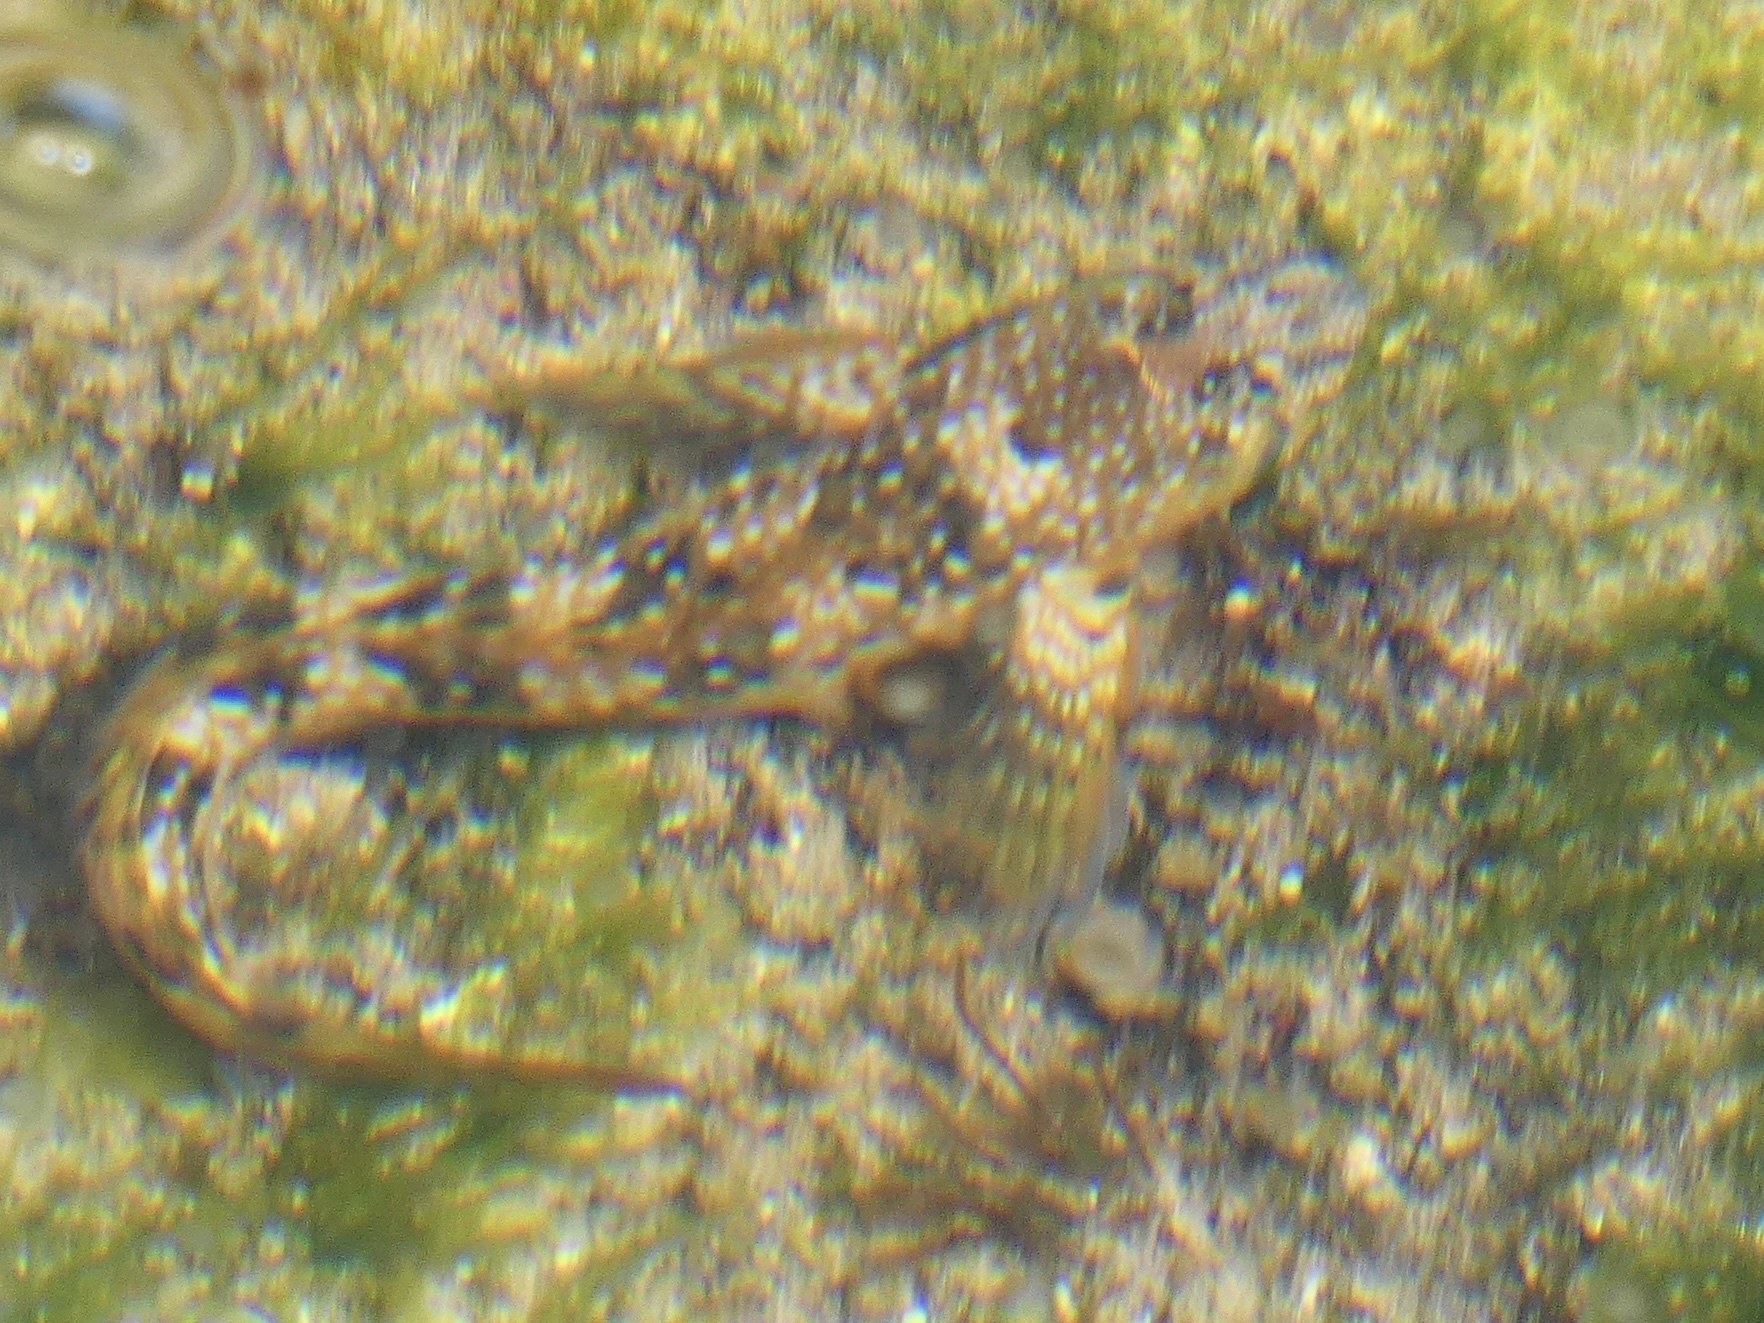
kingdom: Animalia
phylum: Chordata
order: Perciformes
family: Blenniidae
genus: Coryphoblennius
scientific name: Coryphoblennius galerita
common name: Montagu's blenny
